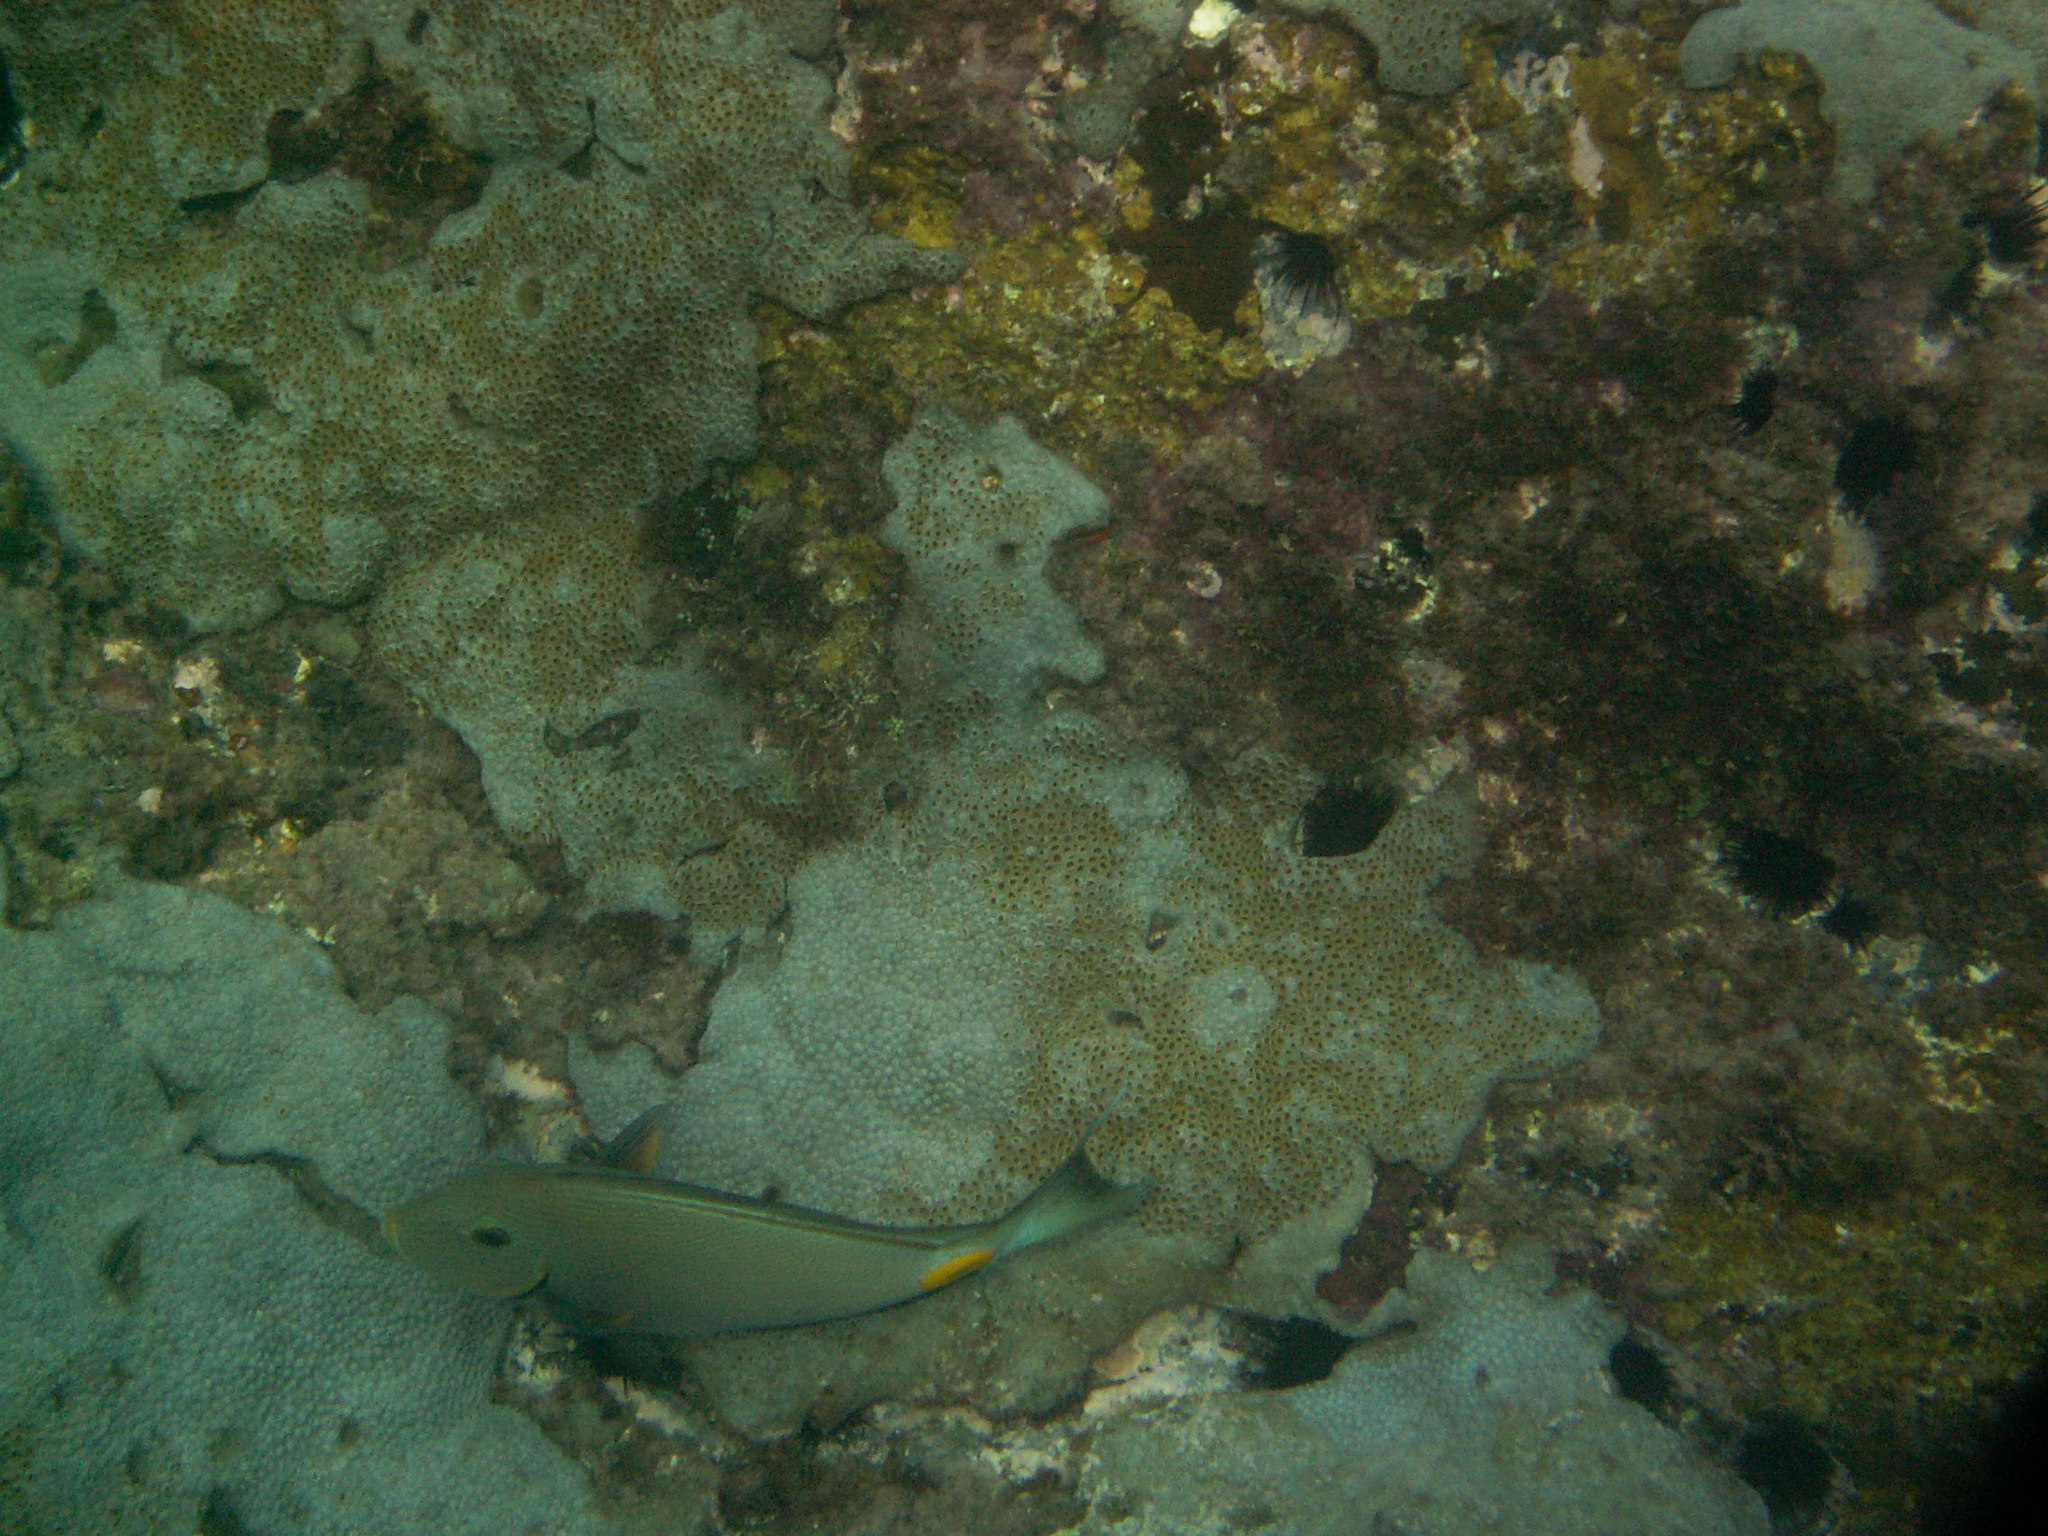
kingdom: Animalia
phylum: Chordata
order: Perciformes
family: Acanthuridae
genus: Acanthurus
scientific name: Acanthurus monroviae
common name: Monrovia surgeonfish
